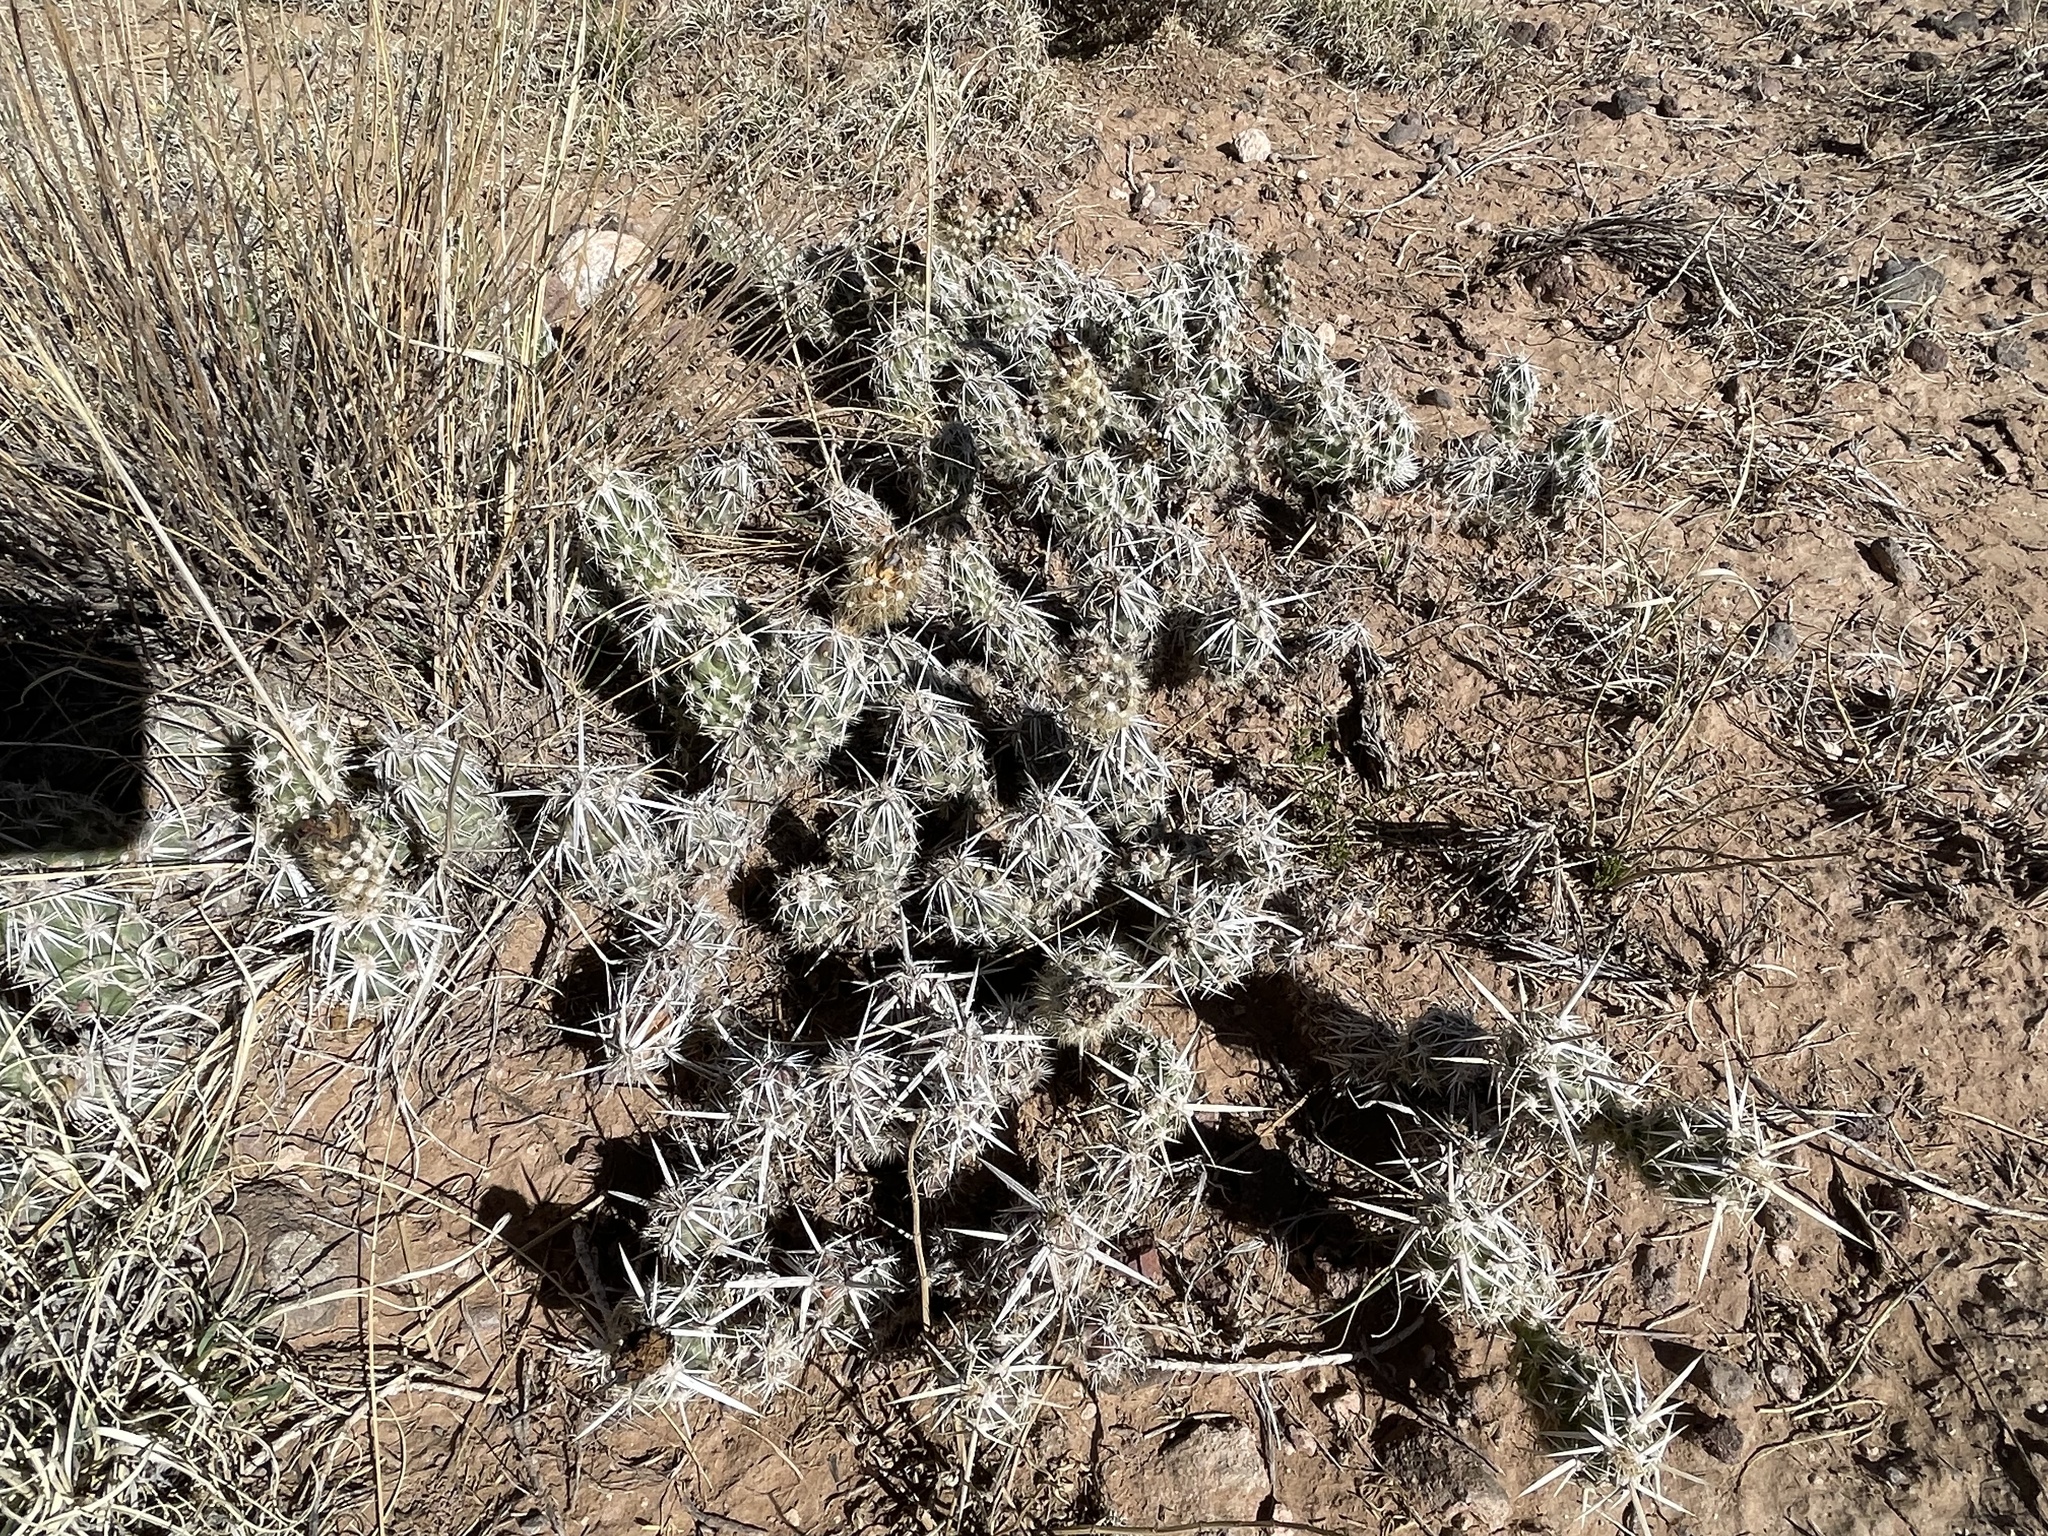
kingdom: Plantae
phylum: Tracheophyta
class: Magnoliopsida
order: Caryophyllales
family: Cactaceae
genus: Grusonia
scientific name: Grusonia clavata
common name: Club cholla
